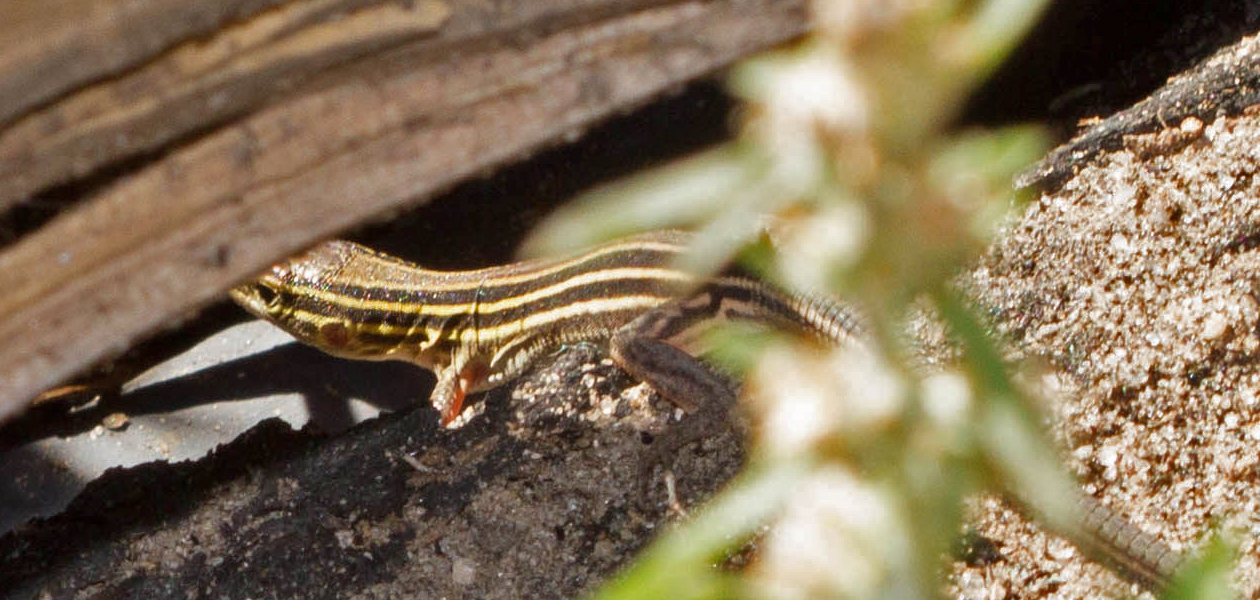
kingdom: Animalia
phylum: Chordata
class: Squamata
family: Teiidae
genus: Aspidoscelis
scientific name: Aspidoscelis sexlineatus
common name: Six-lined racerunner
